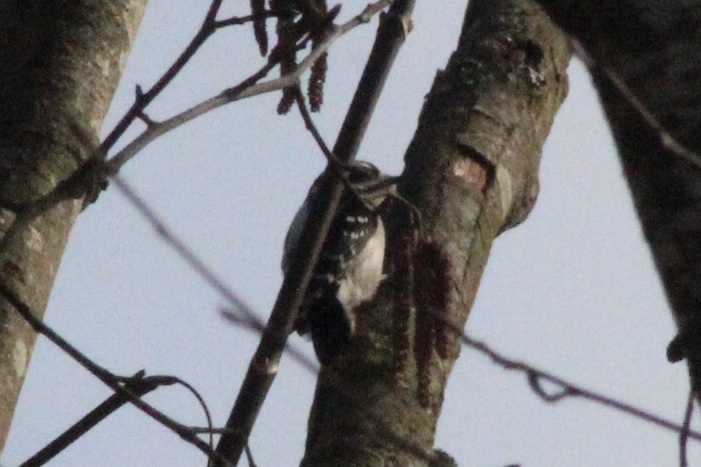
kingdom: Animalia
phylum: Chordata
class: Aves
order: Piciformes
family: Picidae
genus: Dryobates
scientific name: Dryobates pubescens
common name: Downy woodpecker
